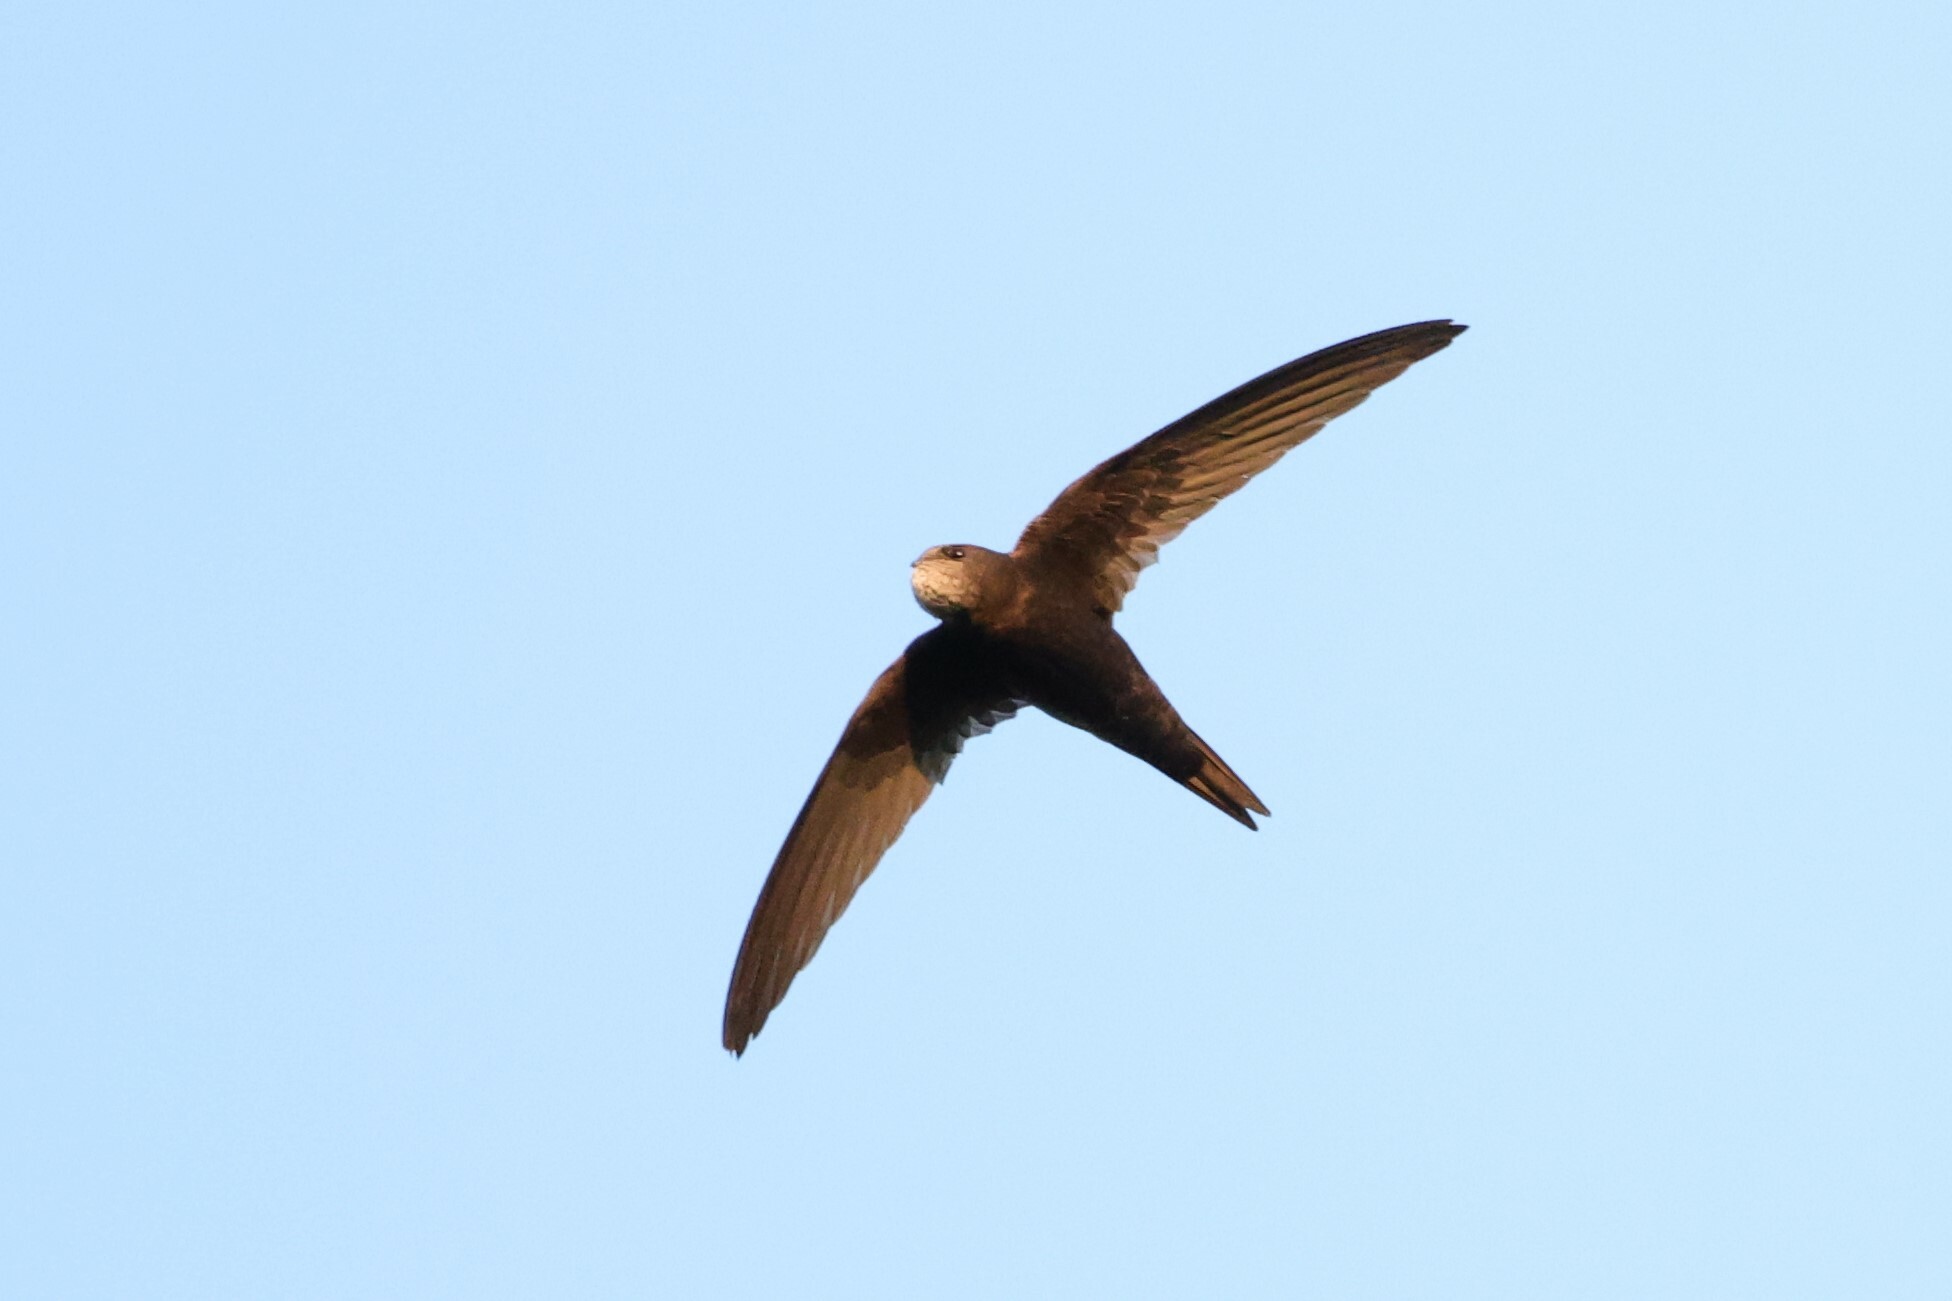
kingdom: Animalia
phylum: Chordata
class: Aves
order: Apodiformes
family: Apodidae
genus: Apus
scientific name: Apus apus
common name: Common swift
